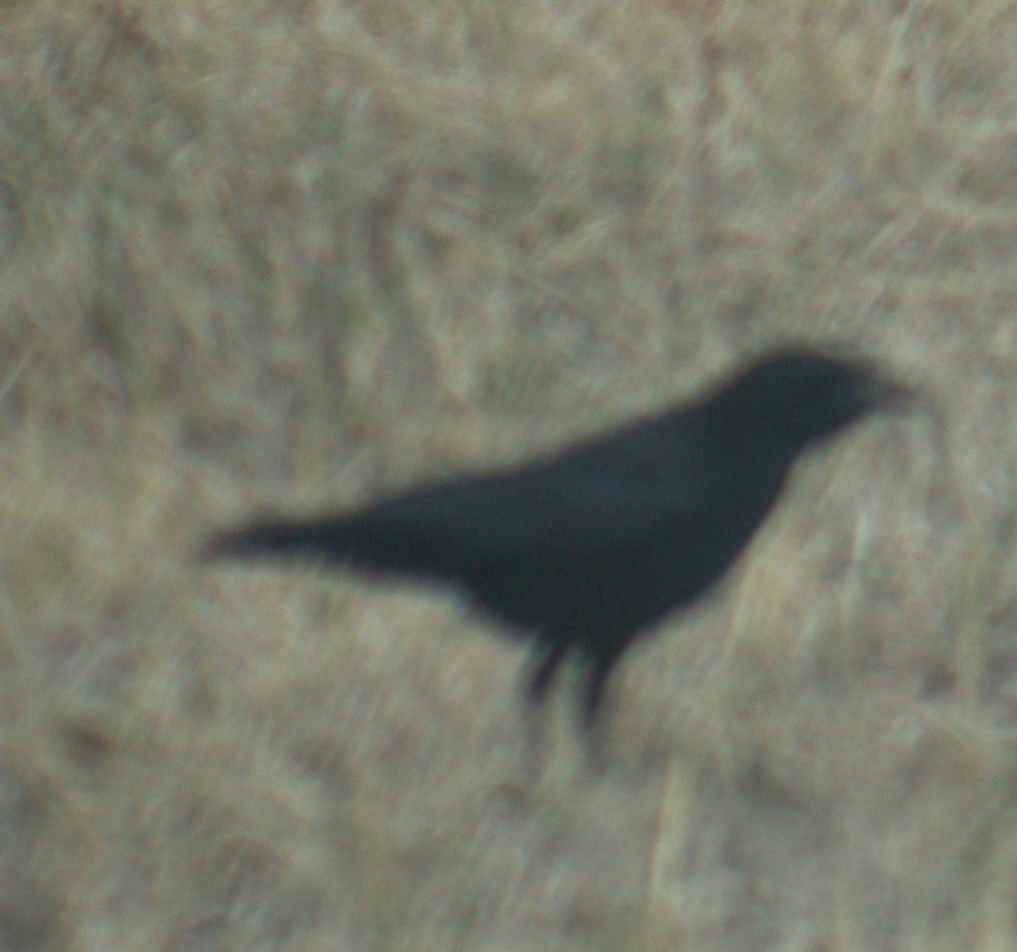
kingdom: Animalia
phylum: Chordata
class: Aves
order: Passeriformes
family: Corvidae
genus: Corvus
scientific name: Corvus brachyrhynchos
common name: American crow
